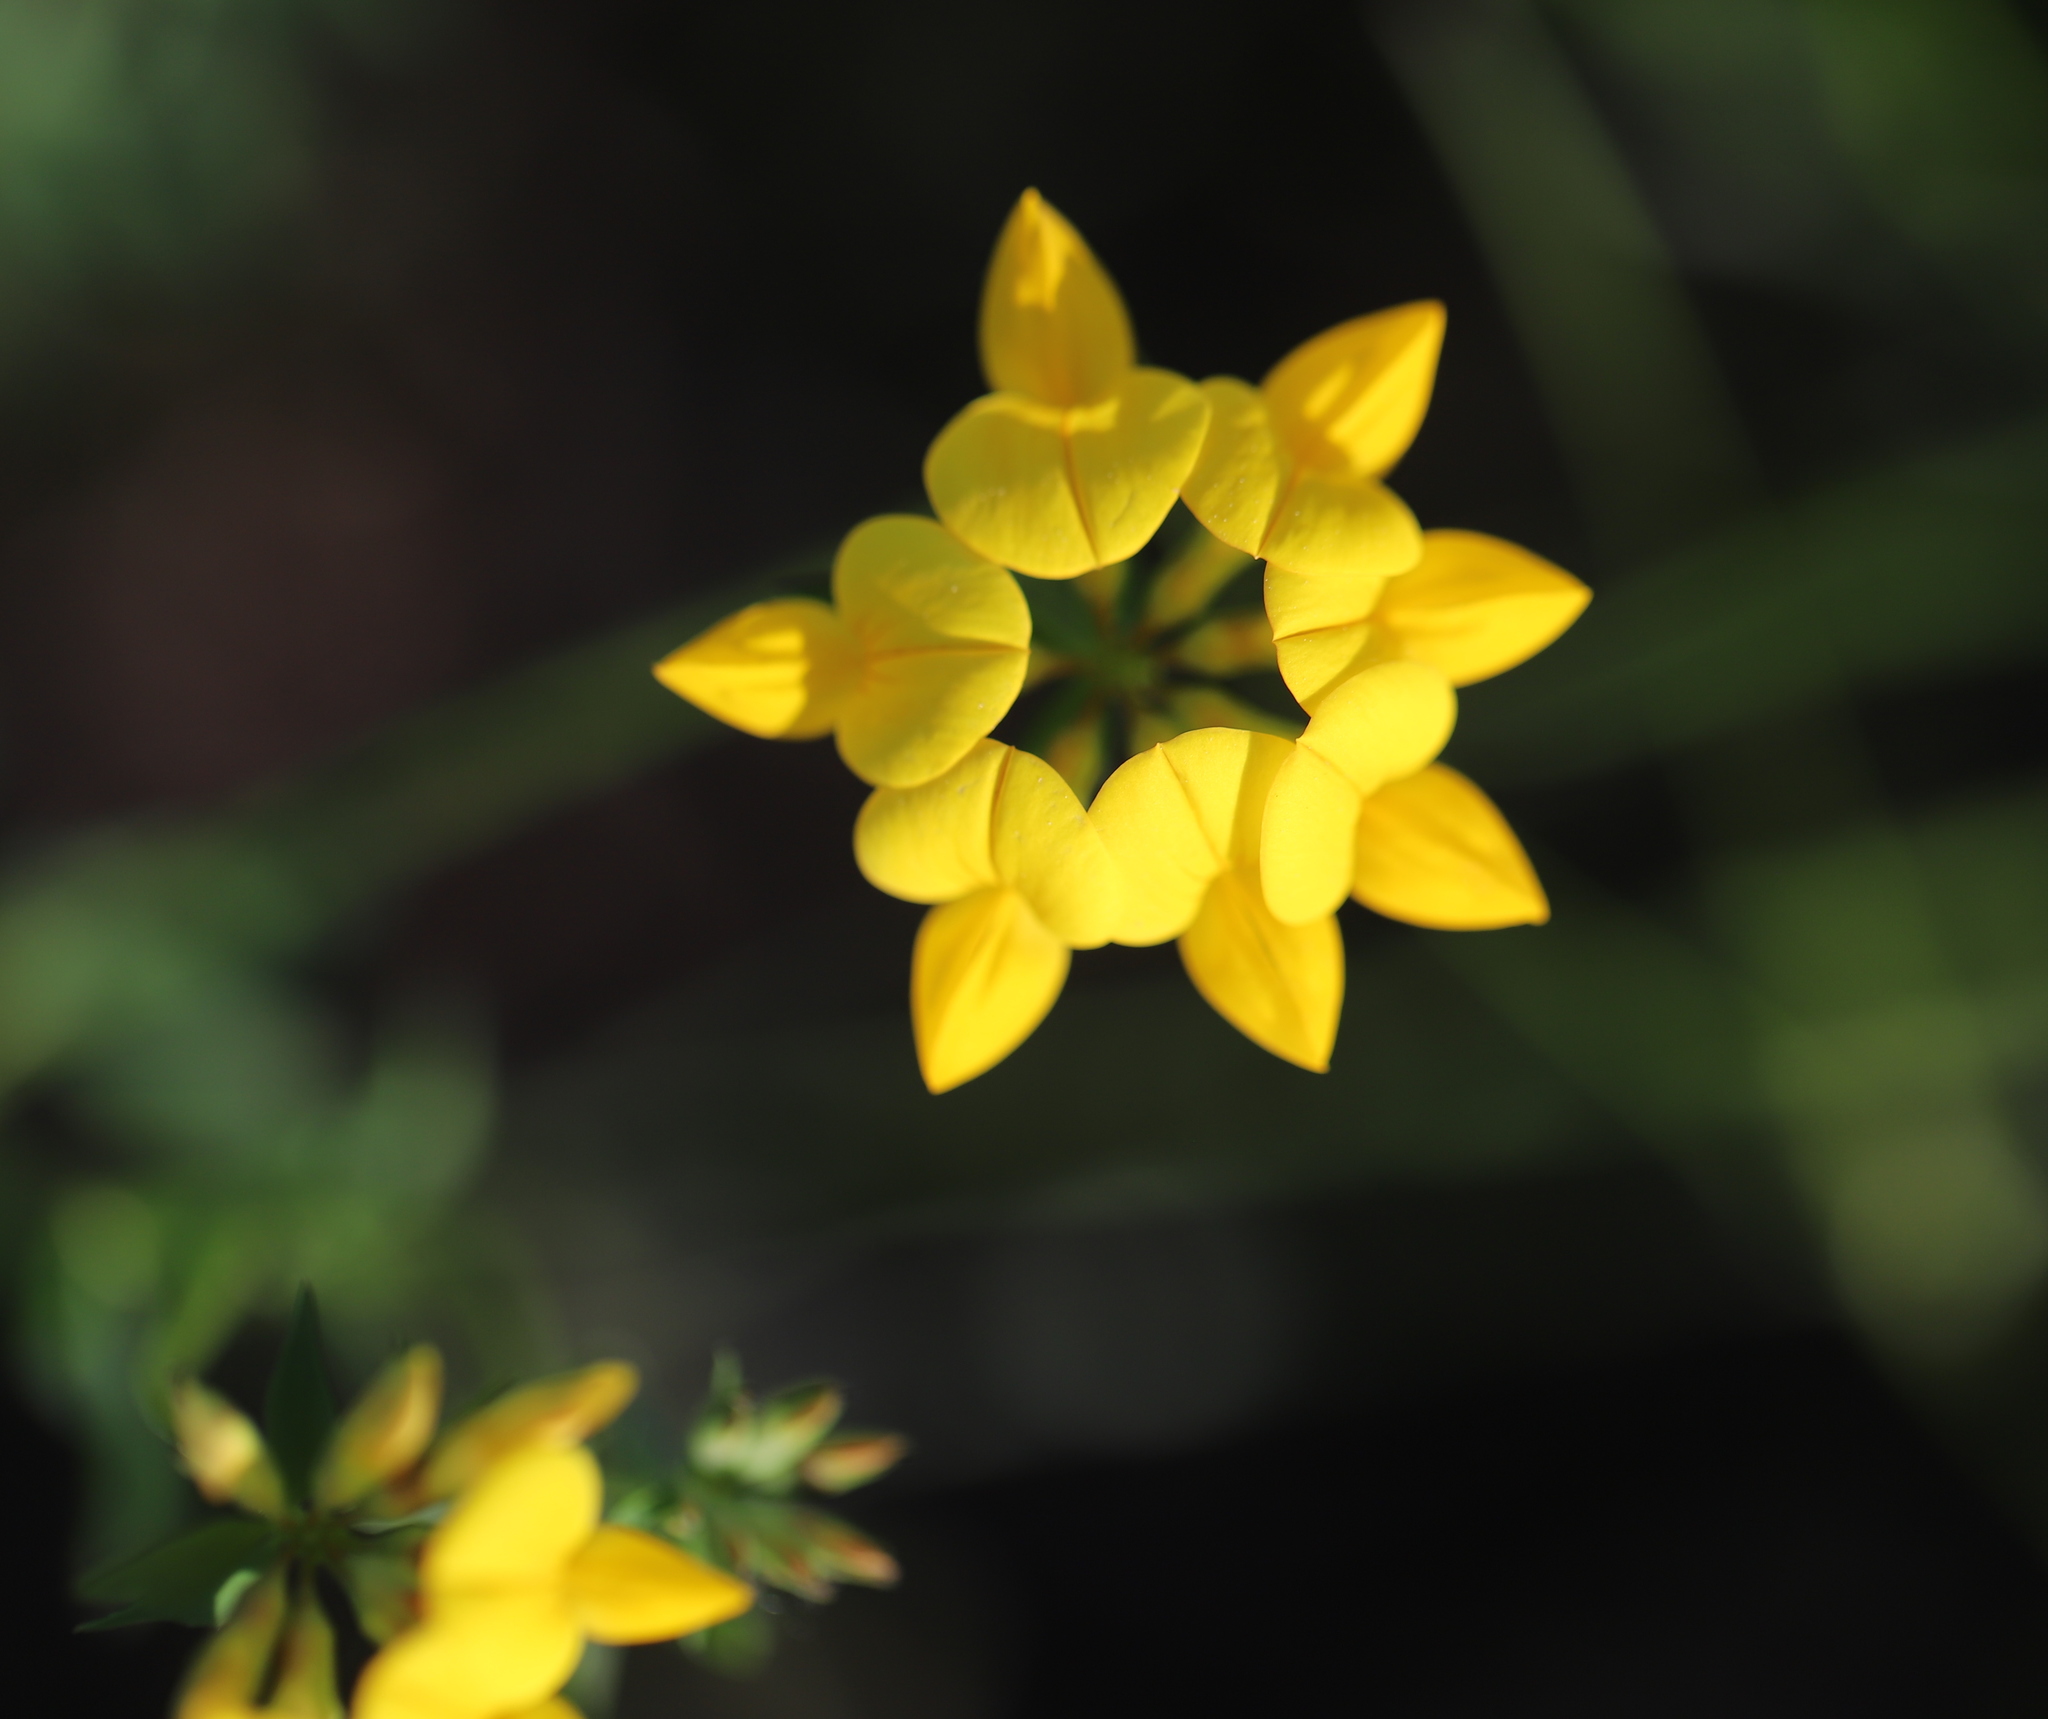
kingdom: Plantae
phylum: Tracheophyta
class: Magnoliopsida
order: Fabales
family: Fabaceae
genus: Lotus
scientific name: Lotus corniculatus
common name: Common bird's-foot-trefoil
